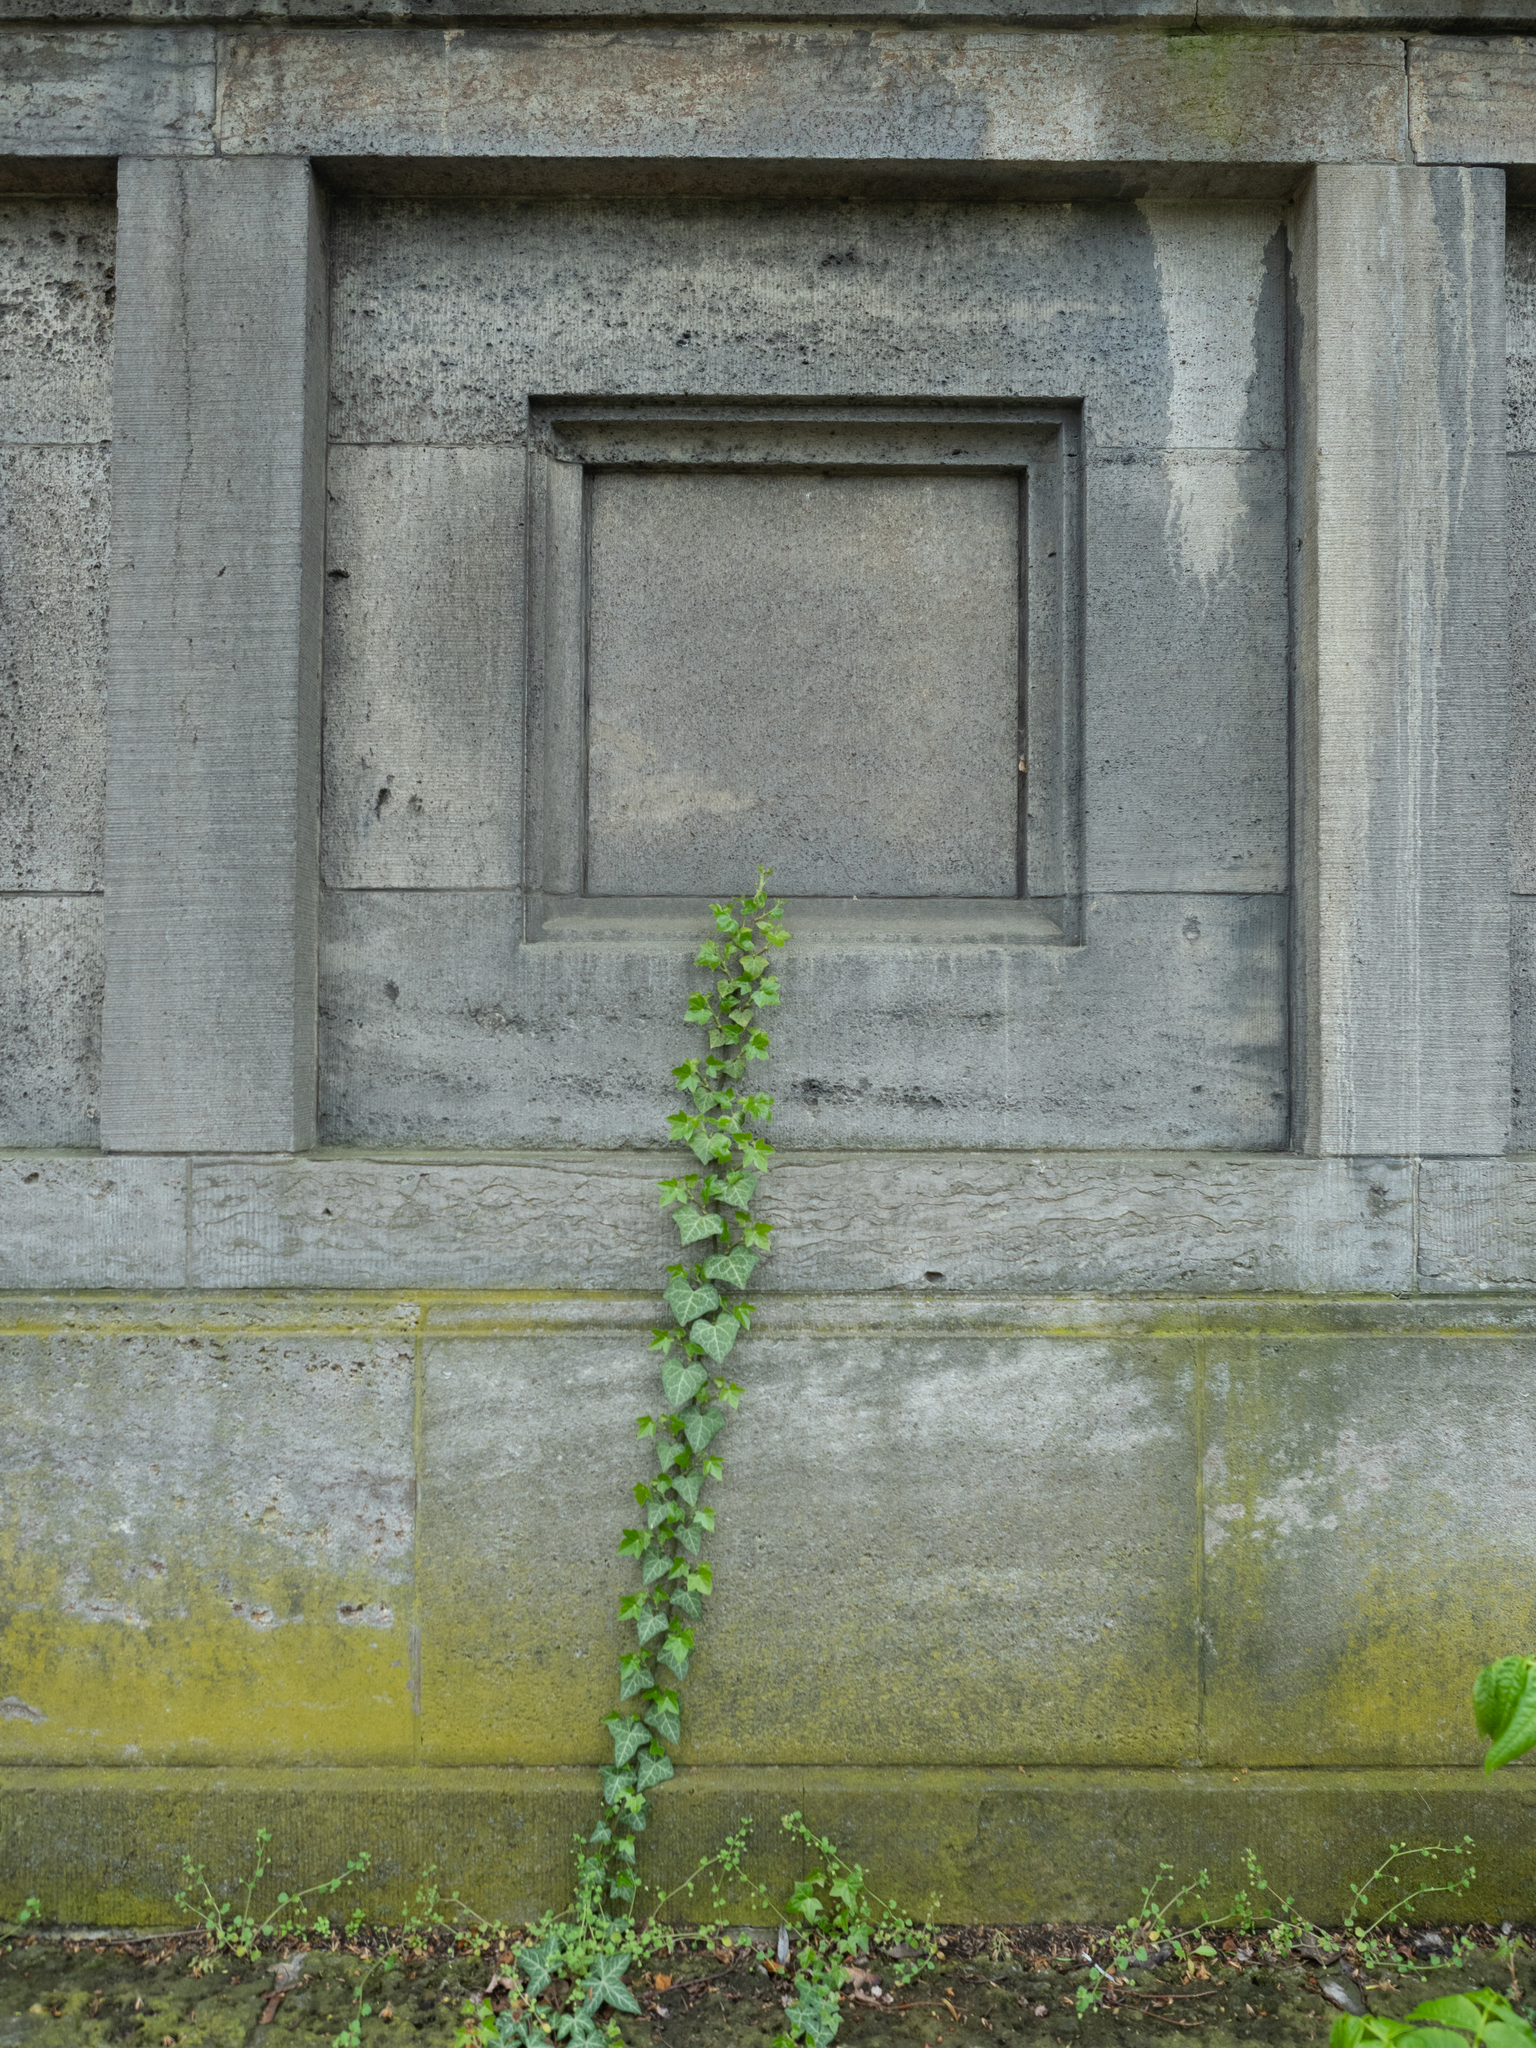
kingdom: Plantae
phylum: Tracheophyta
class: Magnoliopsida
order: Apiales
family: Araliaceae
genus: Hedera
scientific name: Hedera helix
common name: Ivy
